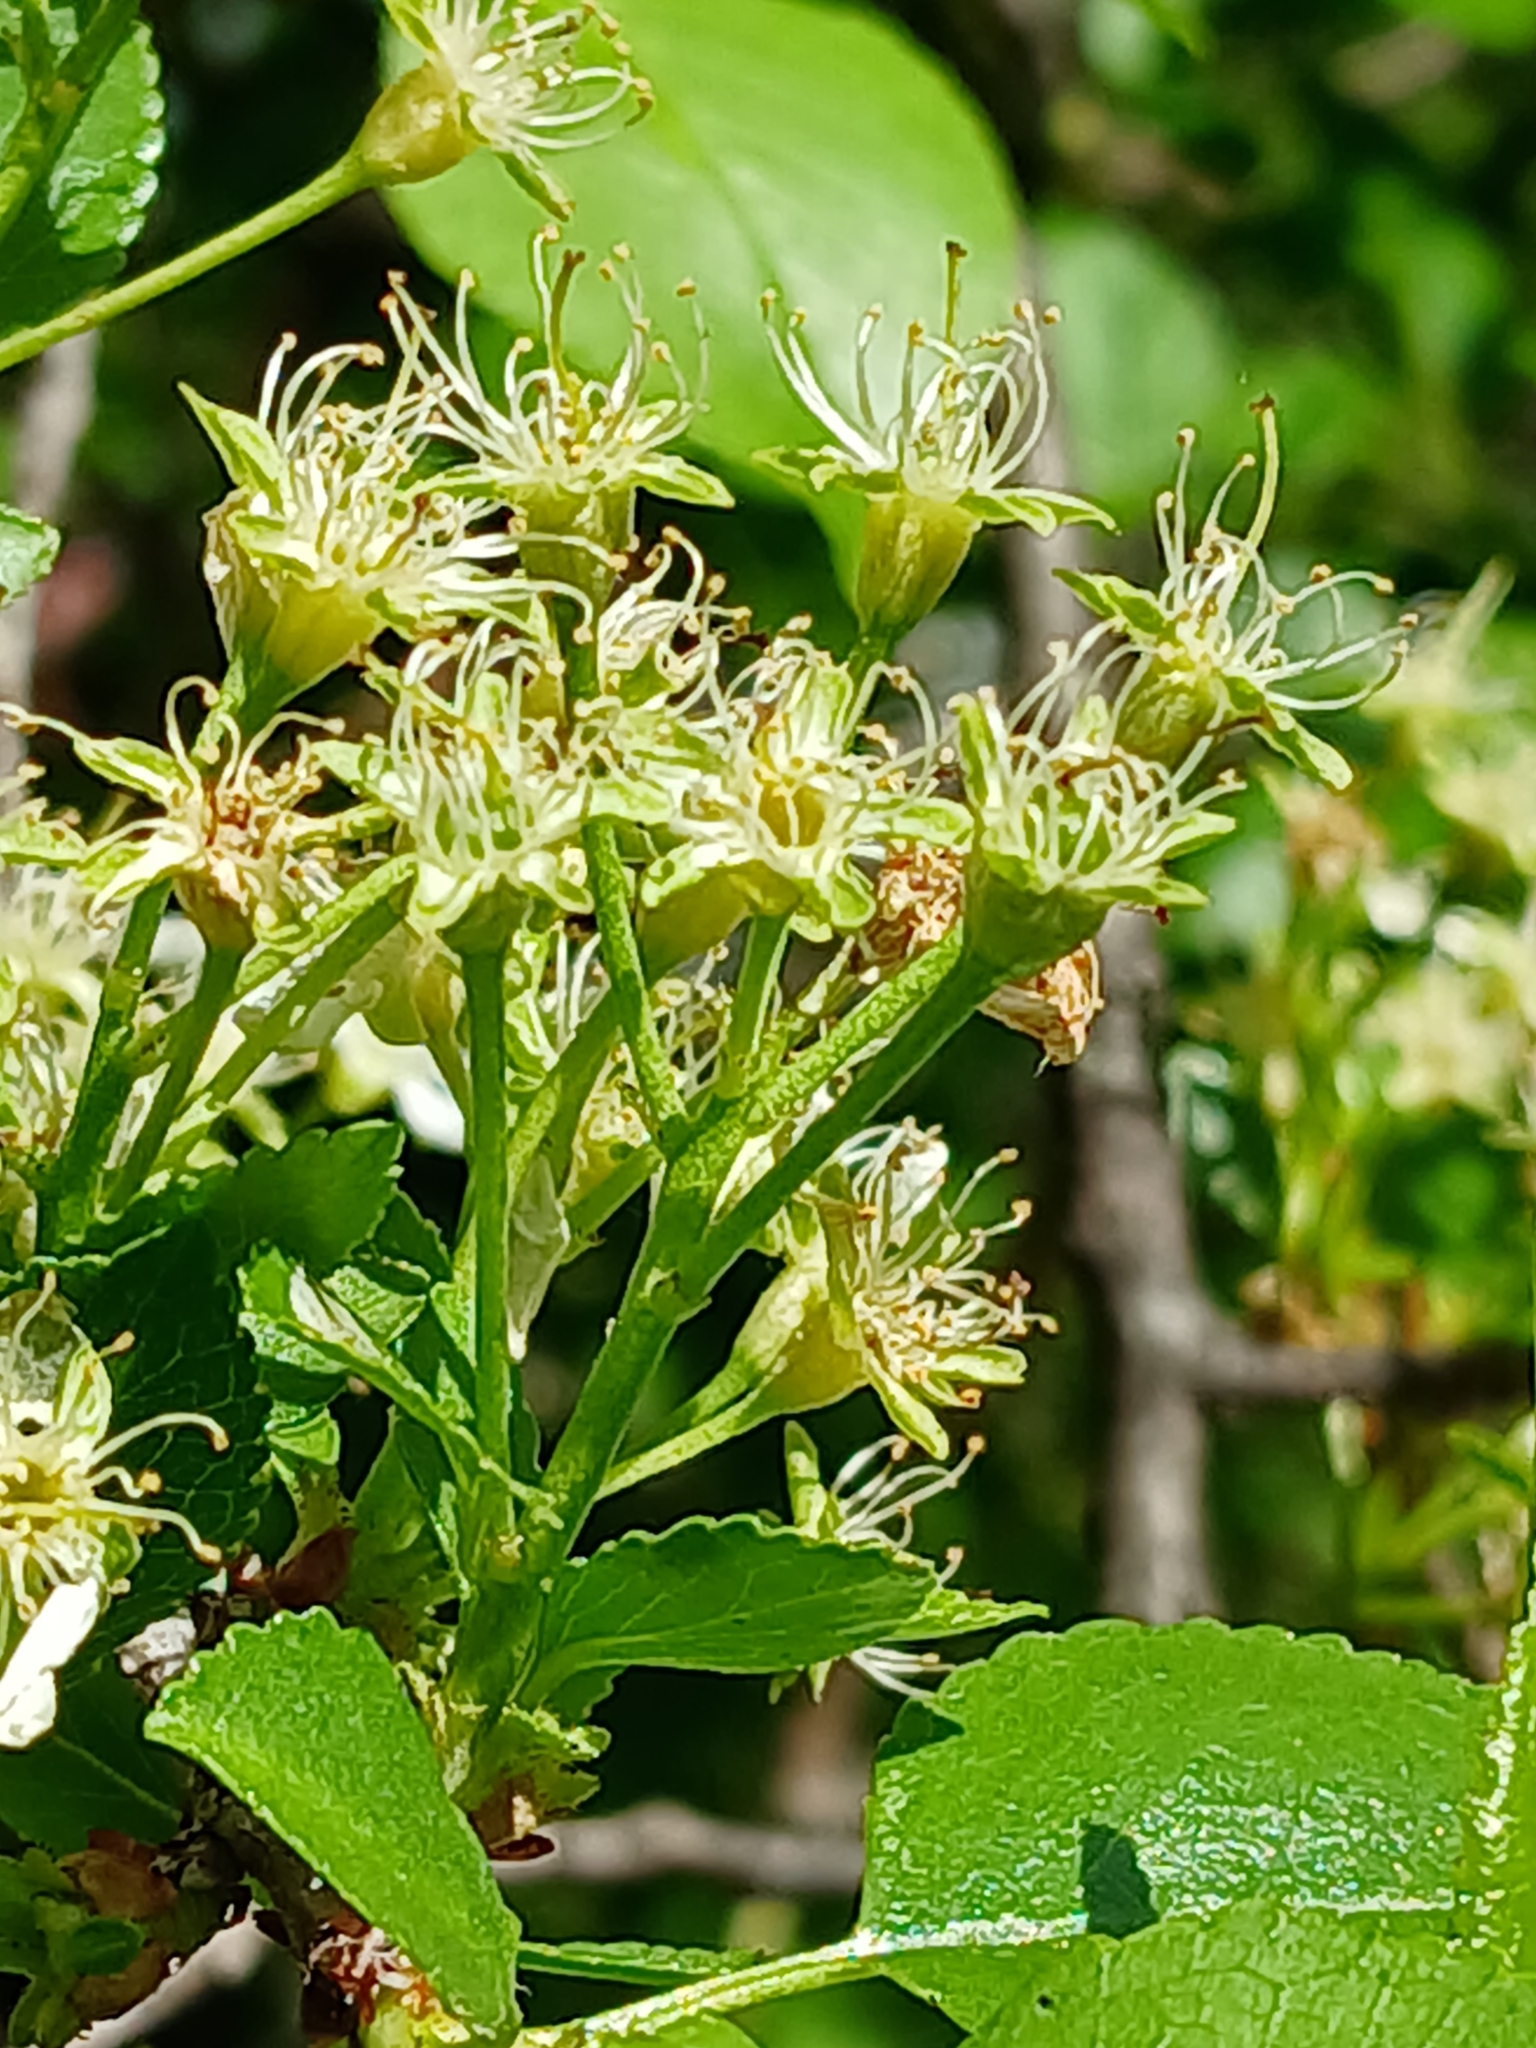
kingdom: Plantae
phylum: Tracheophyta
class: Magnoliopsida
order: Rosales
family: Rosaceae
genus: Prunus
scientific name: Prunus mahaleb
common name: Mahaleb cherry
